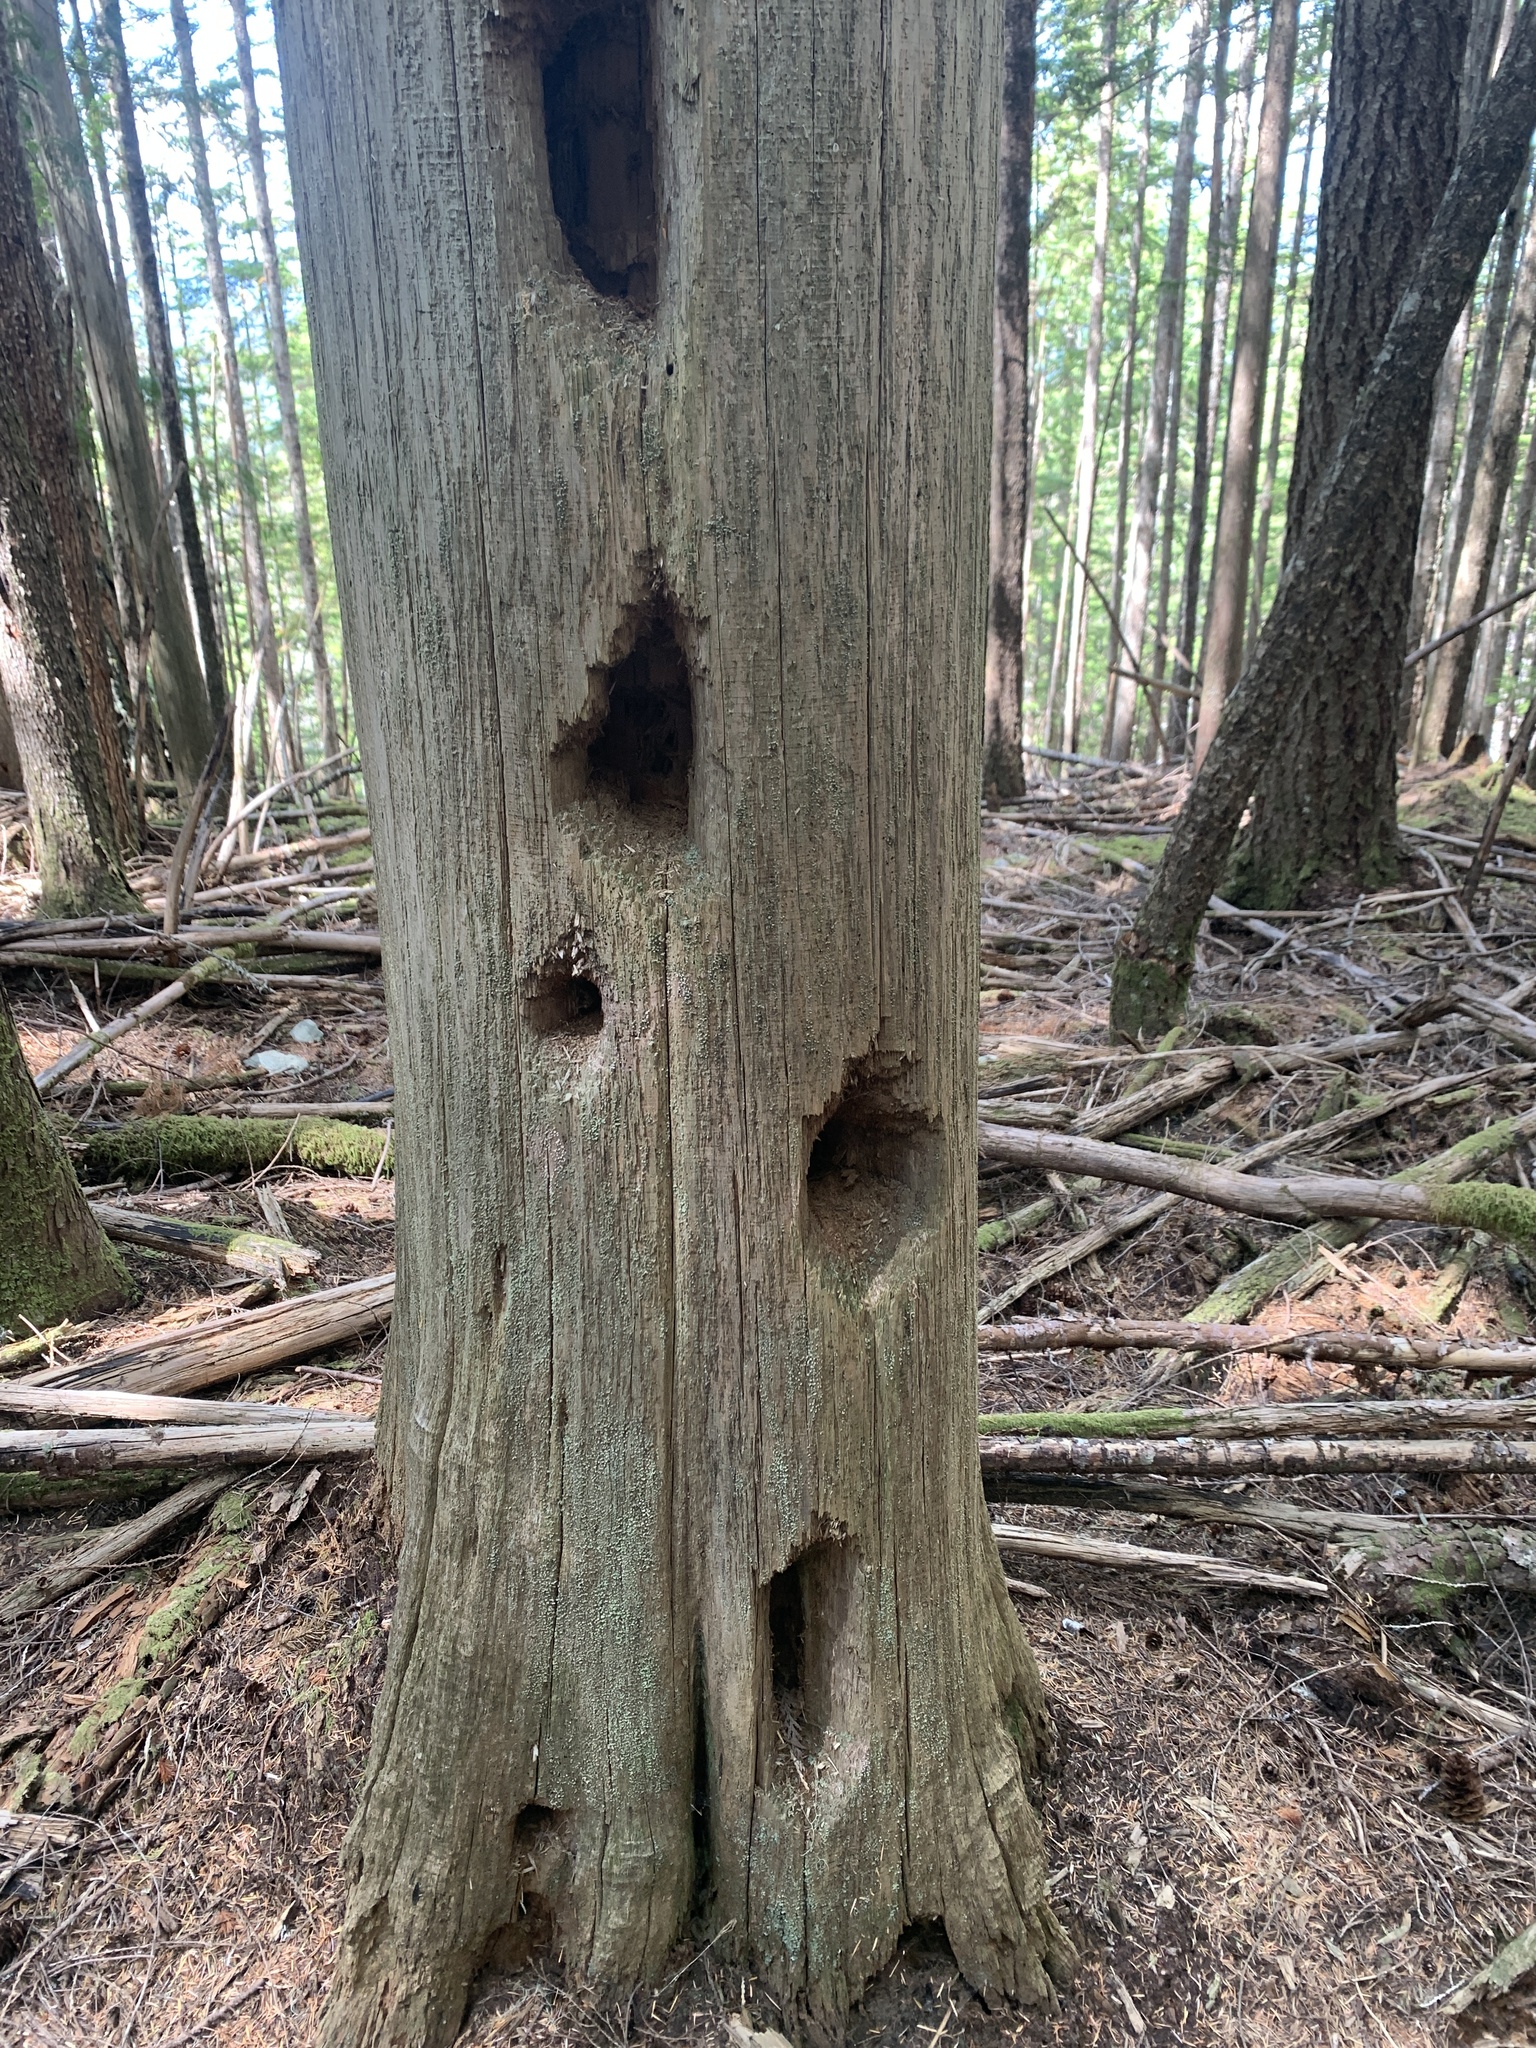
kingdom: Animalia
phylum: Chordata
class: Aves
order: Piciformes
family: Picidae
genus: Dryocopus
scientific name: Dryocopus pileatus
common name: Pileated woodpecker
